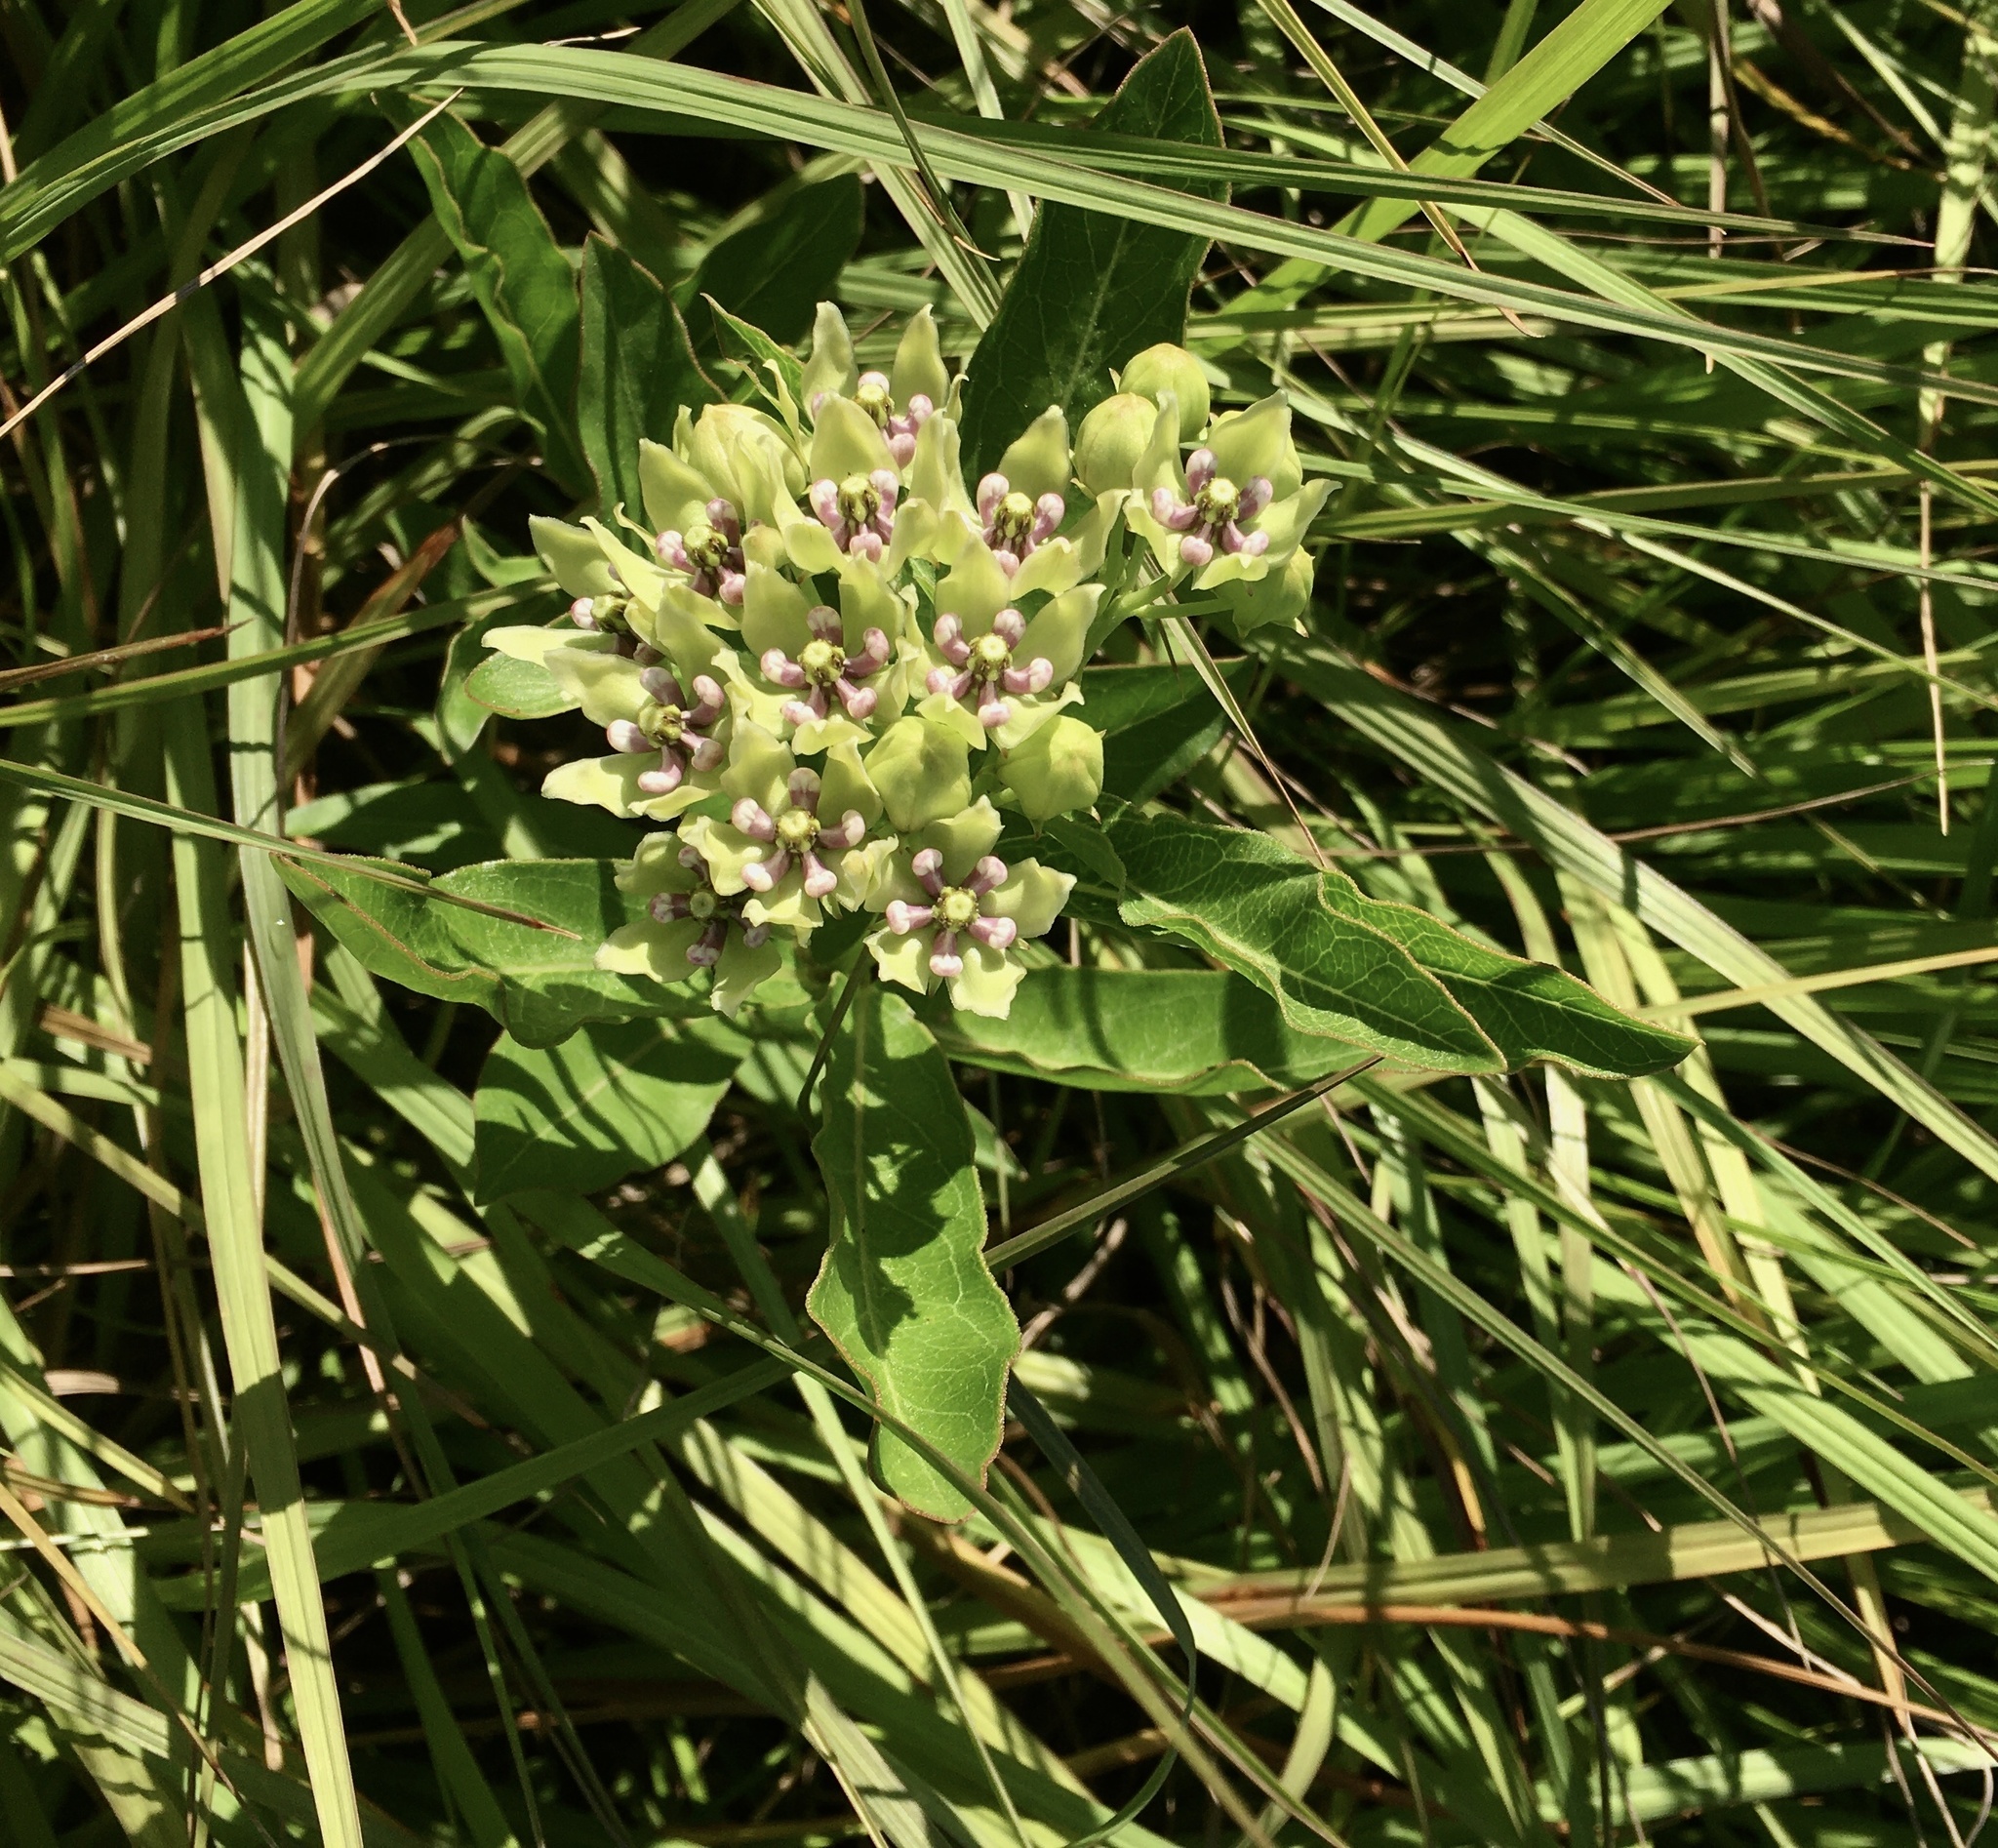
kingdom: Plantae
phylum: Tracheophyta
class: Magnoliopsida
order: Gentianales
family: Apocynaceae
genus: Asclepias
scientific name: Asclepias viridis
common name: Antelope-horns
